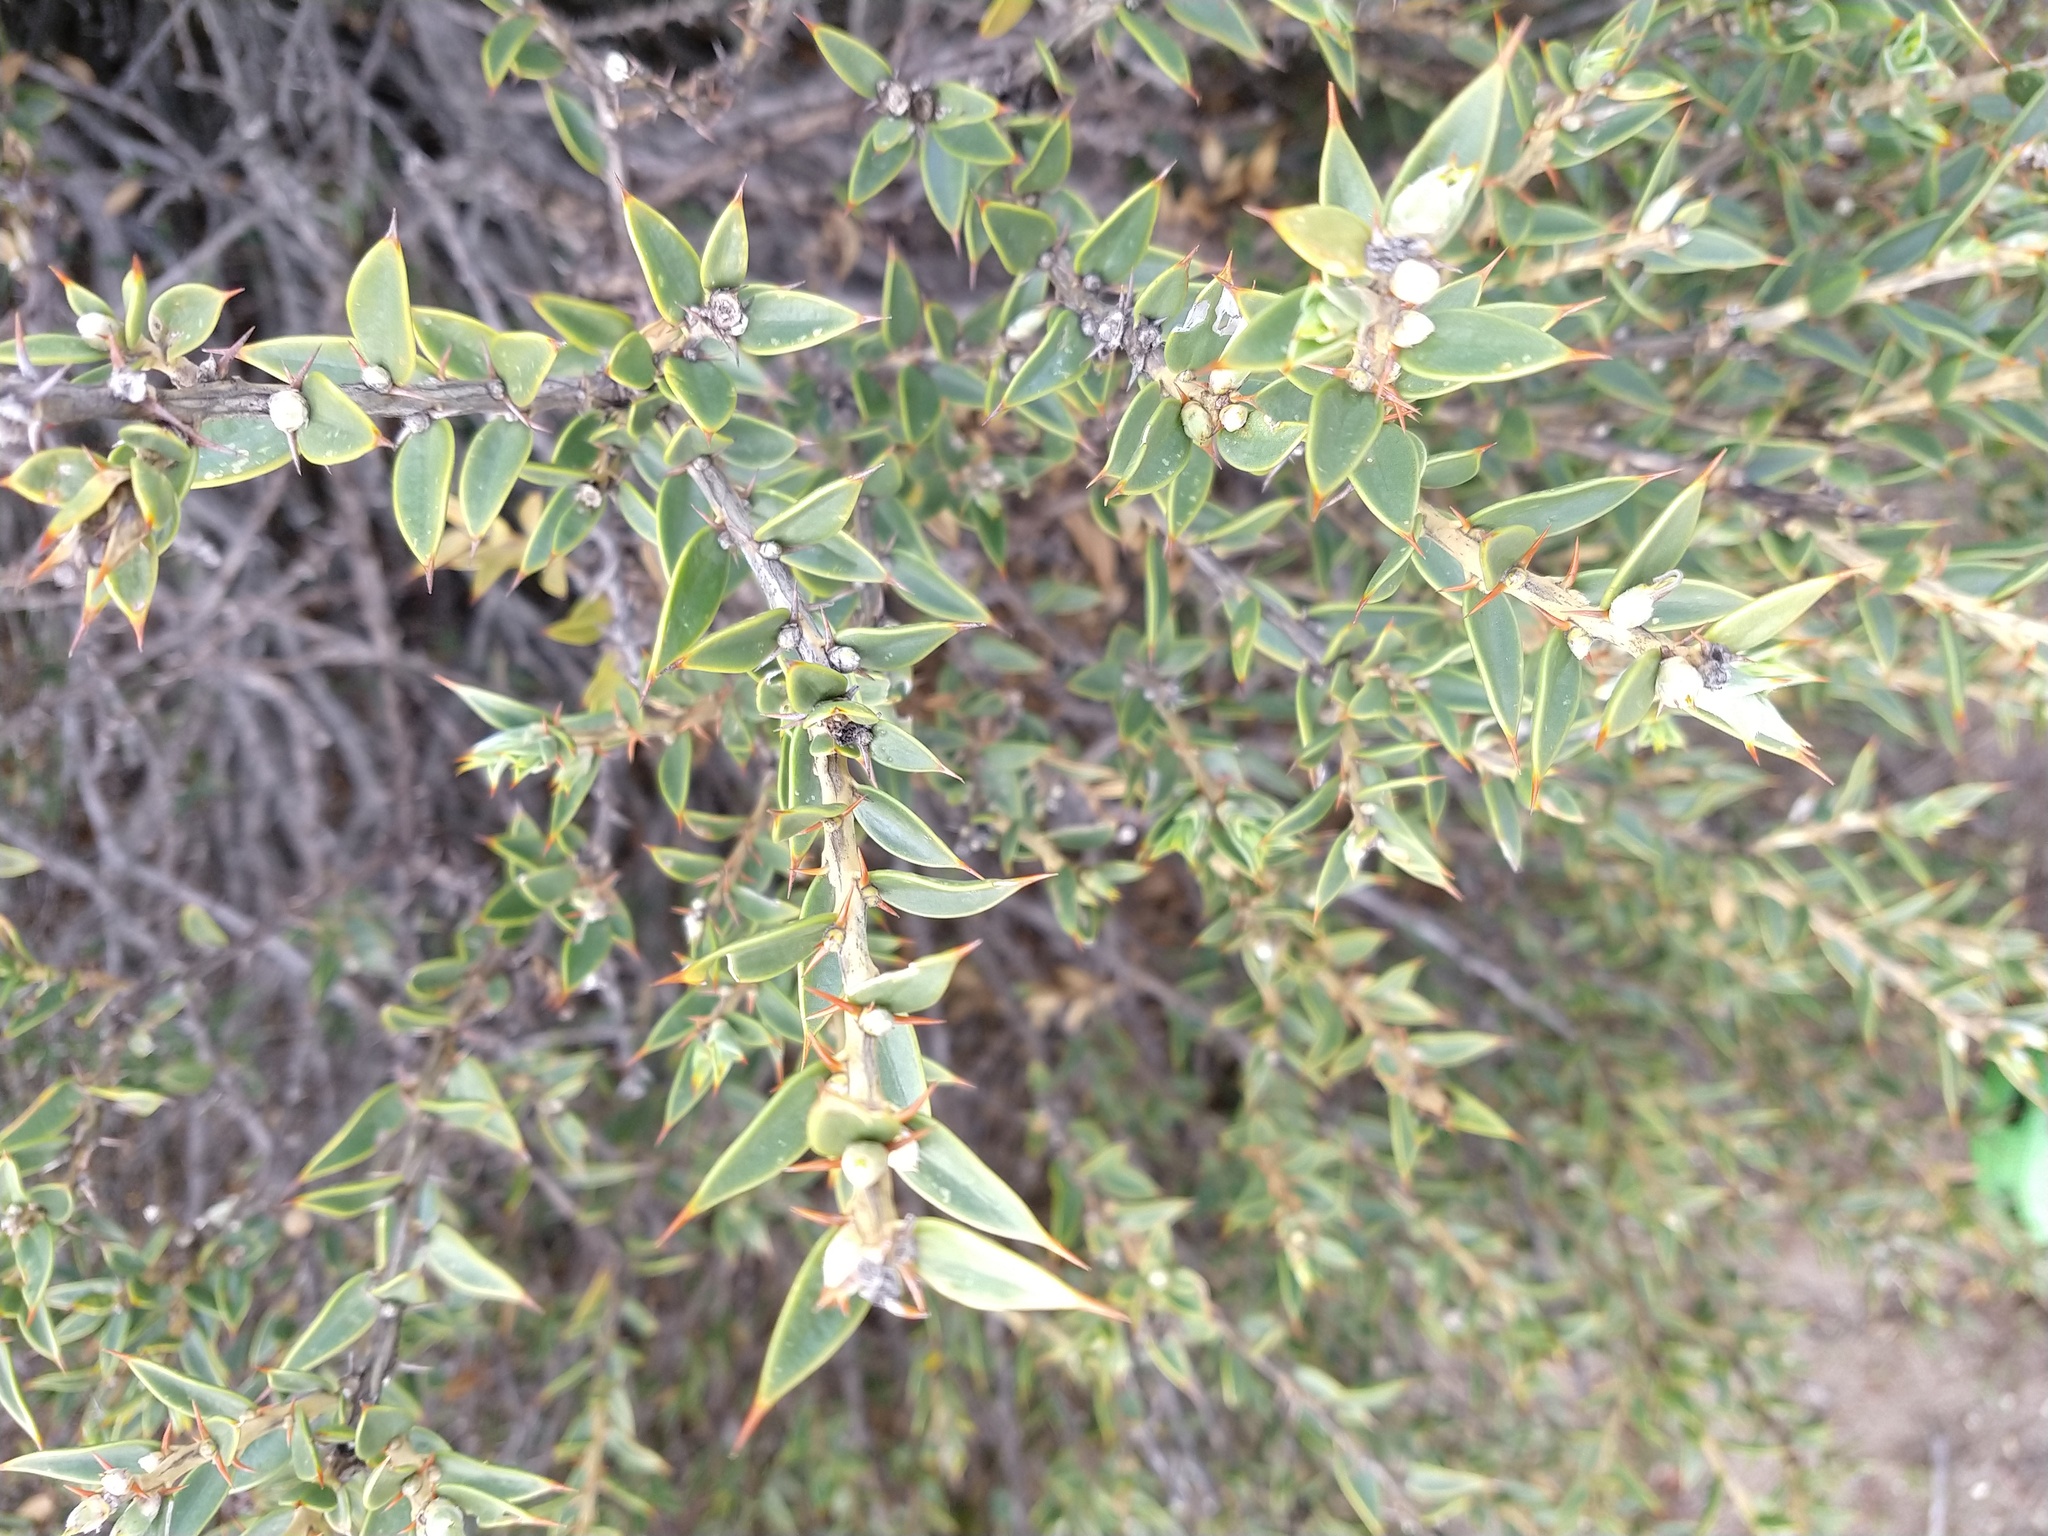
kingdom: Plantae
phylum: Tracheophyta
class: Magnoliopsida
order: Asterales
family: Asteraceae
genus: Chuquiraga
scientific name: Chuquiraga avellanedae
